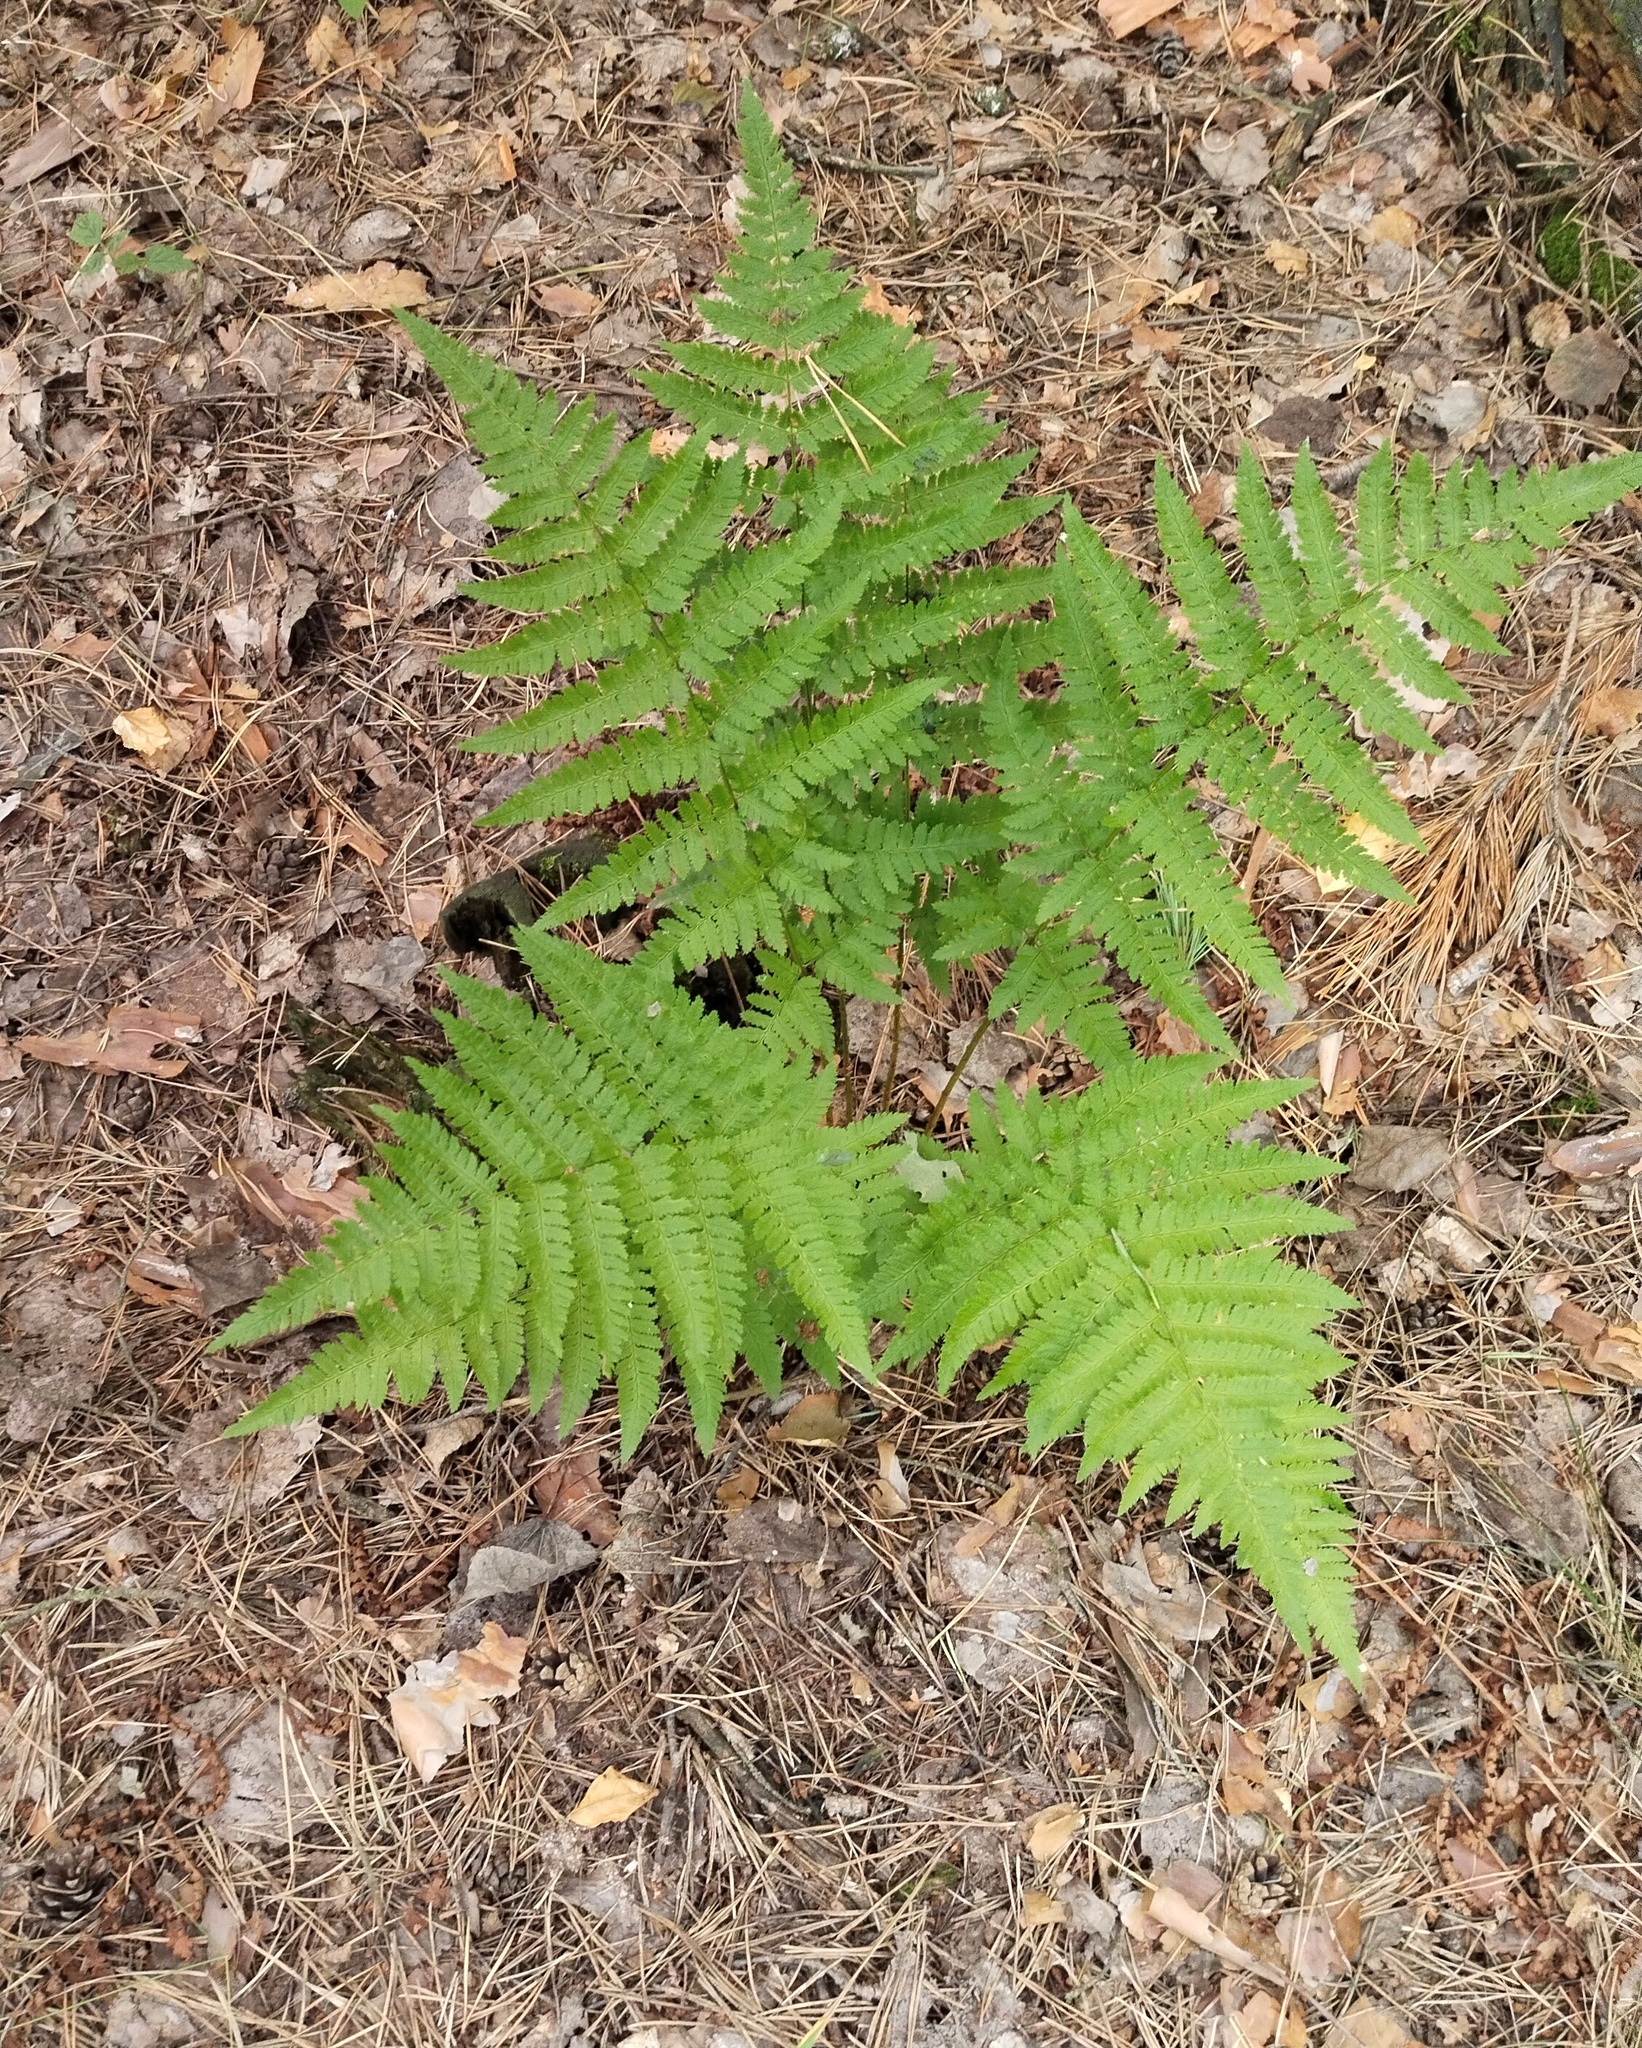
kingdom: Plantae
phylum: Tracheophyta
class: Polypodiopsida
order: Polypodiales
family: Dryopteridaceae
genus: Dryopteris
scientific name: Dryopteris carthusiana
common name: Narrow buckler-fern
